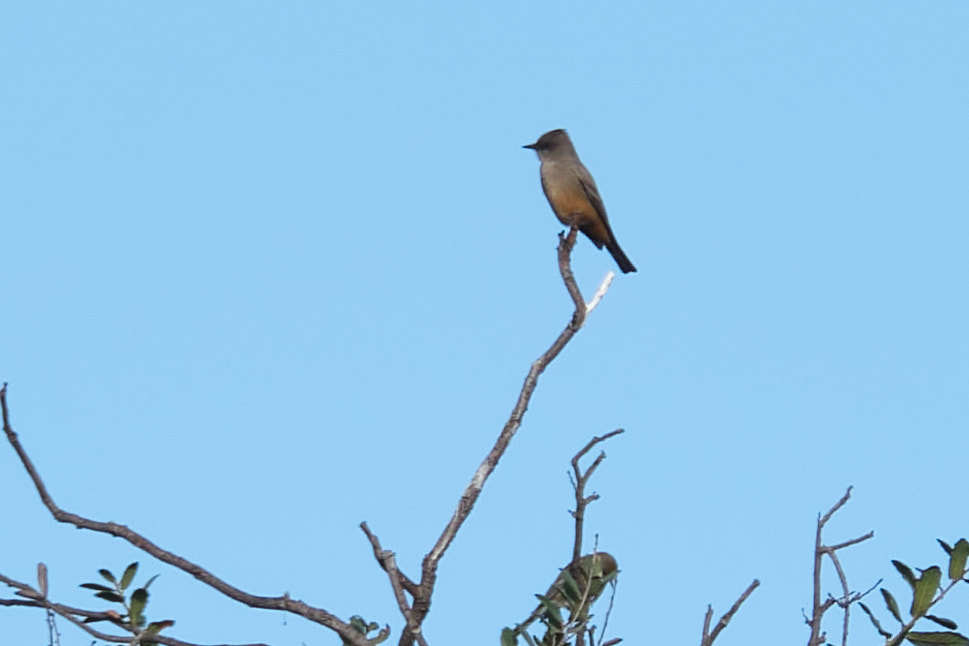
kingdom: Animalia
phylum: Chordata
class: Aves
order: Passeriformes
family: Tyrannidae
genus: Sayornis
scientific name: Sayornis saya
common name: Say's phoebe
